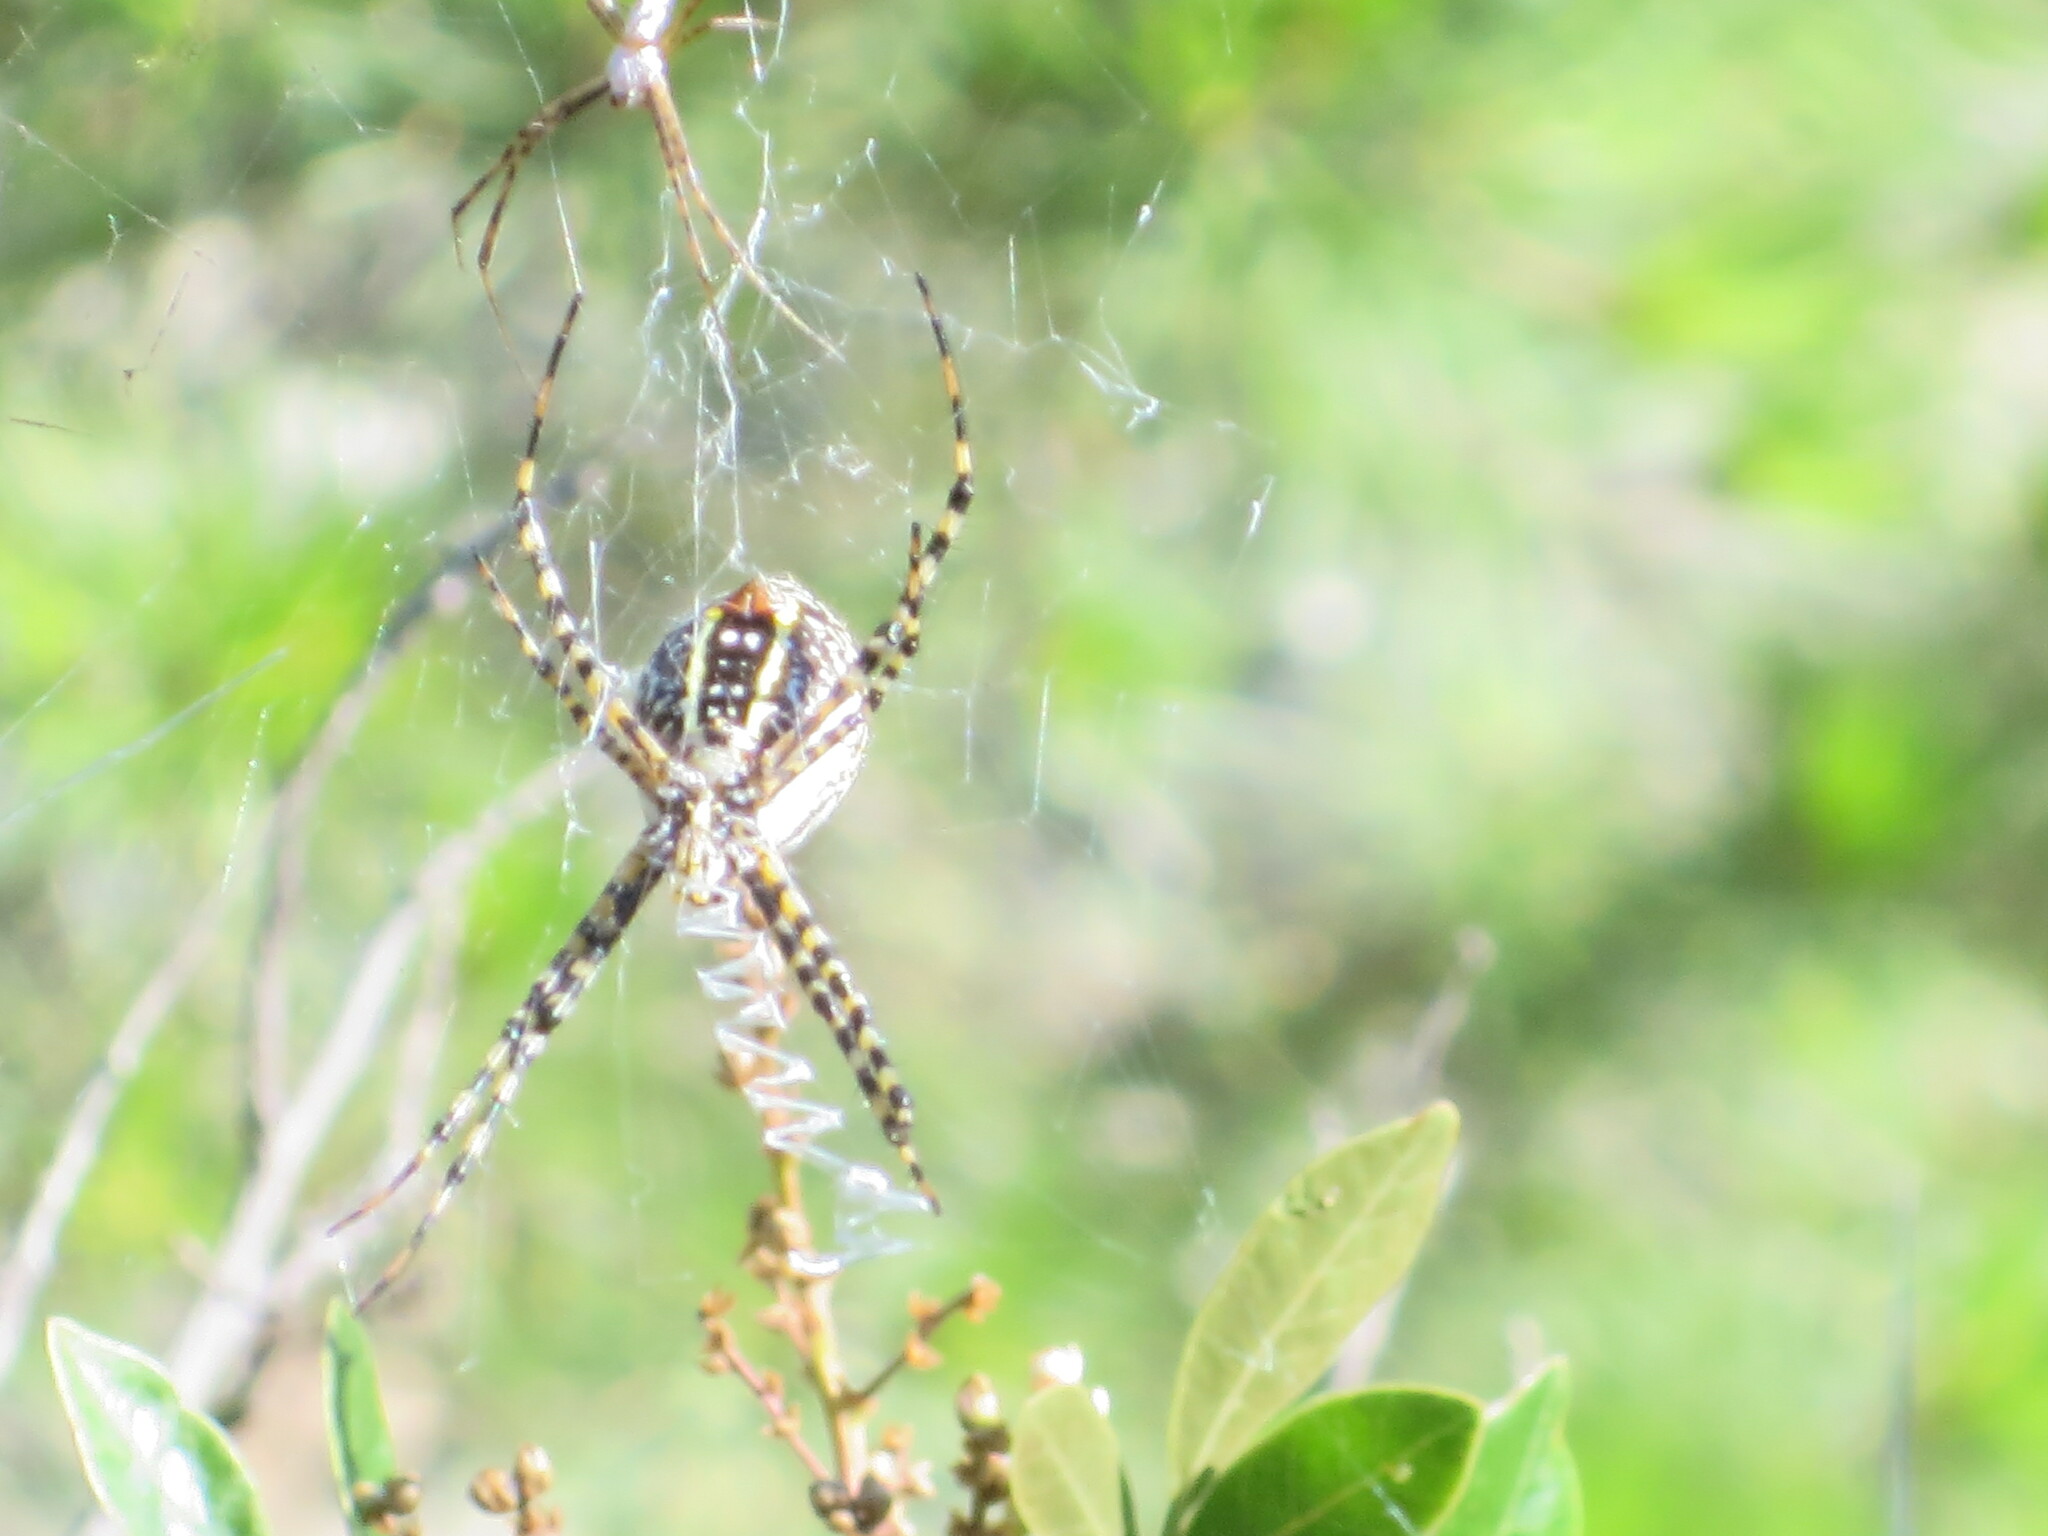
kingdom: Animalia
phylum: Arthropoda
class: Arachnida
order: Araneae
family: Araneidae
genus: Argiope
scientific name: Argiope trifasciata
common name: Banded garden spider
